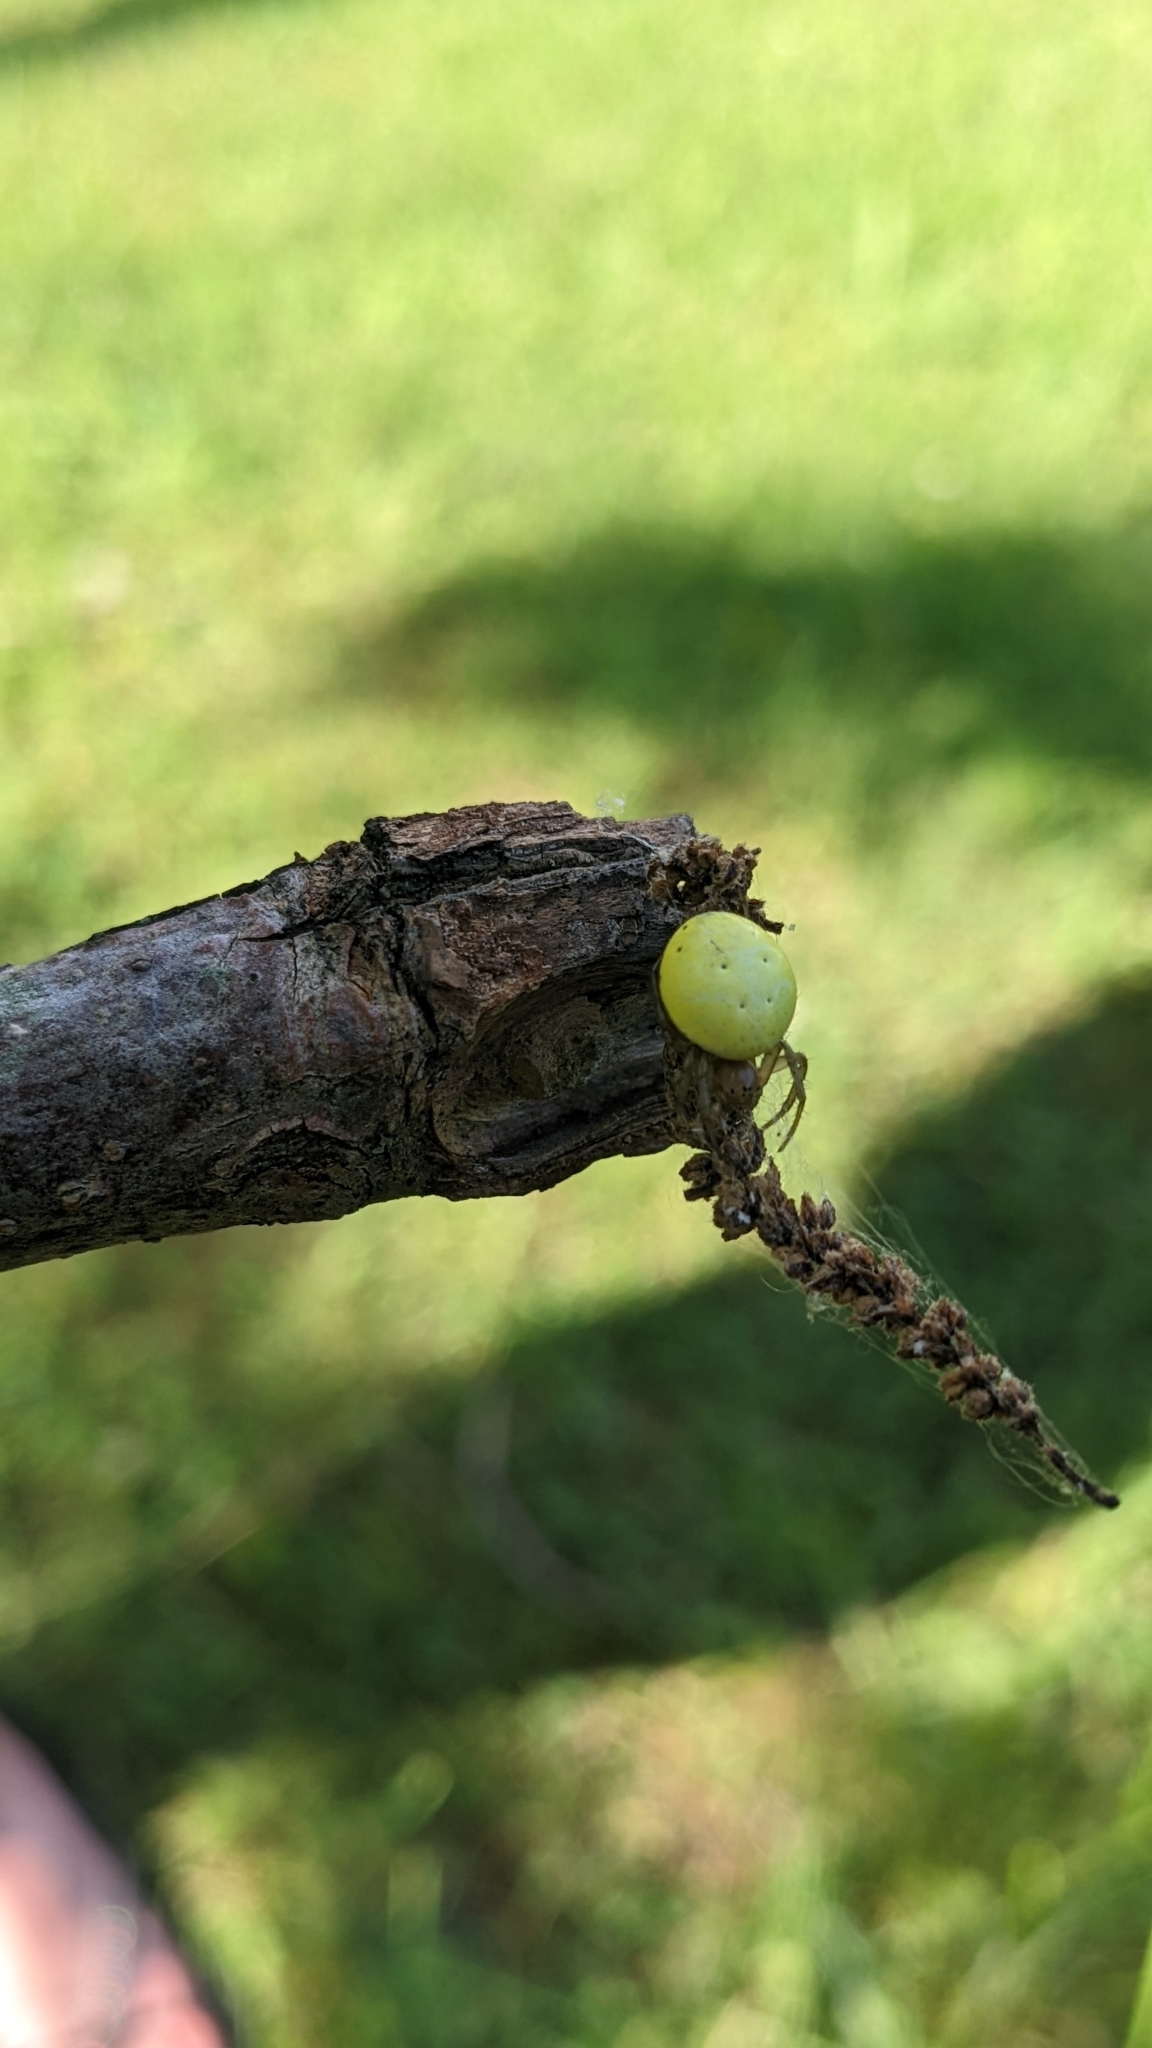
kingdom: Animalia
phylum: Arthropoda
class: Arachnida
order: Araneae
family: Araneidae
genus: Araniella
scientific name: Araniella displicata
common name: Sixspotted orb weaver
